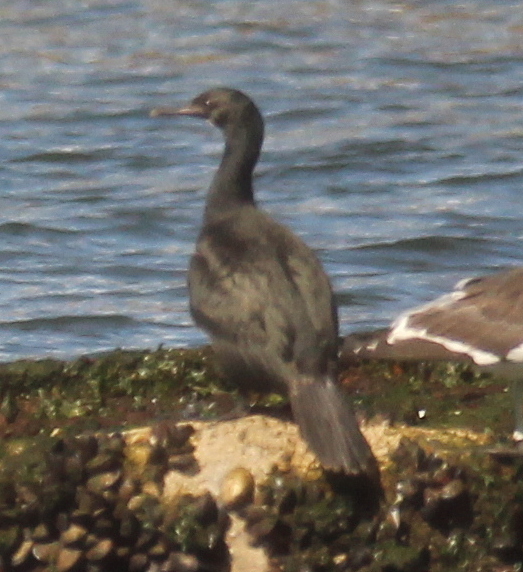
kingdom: Animalia
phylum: Chordata
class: Aves
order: Suliformes
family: Phalacrocoracidae
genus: Phalacrocorax
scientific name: Phalacrocorax magellanicus
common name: Rock shag
